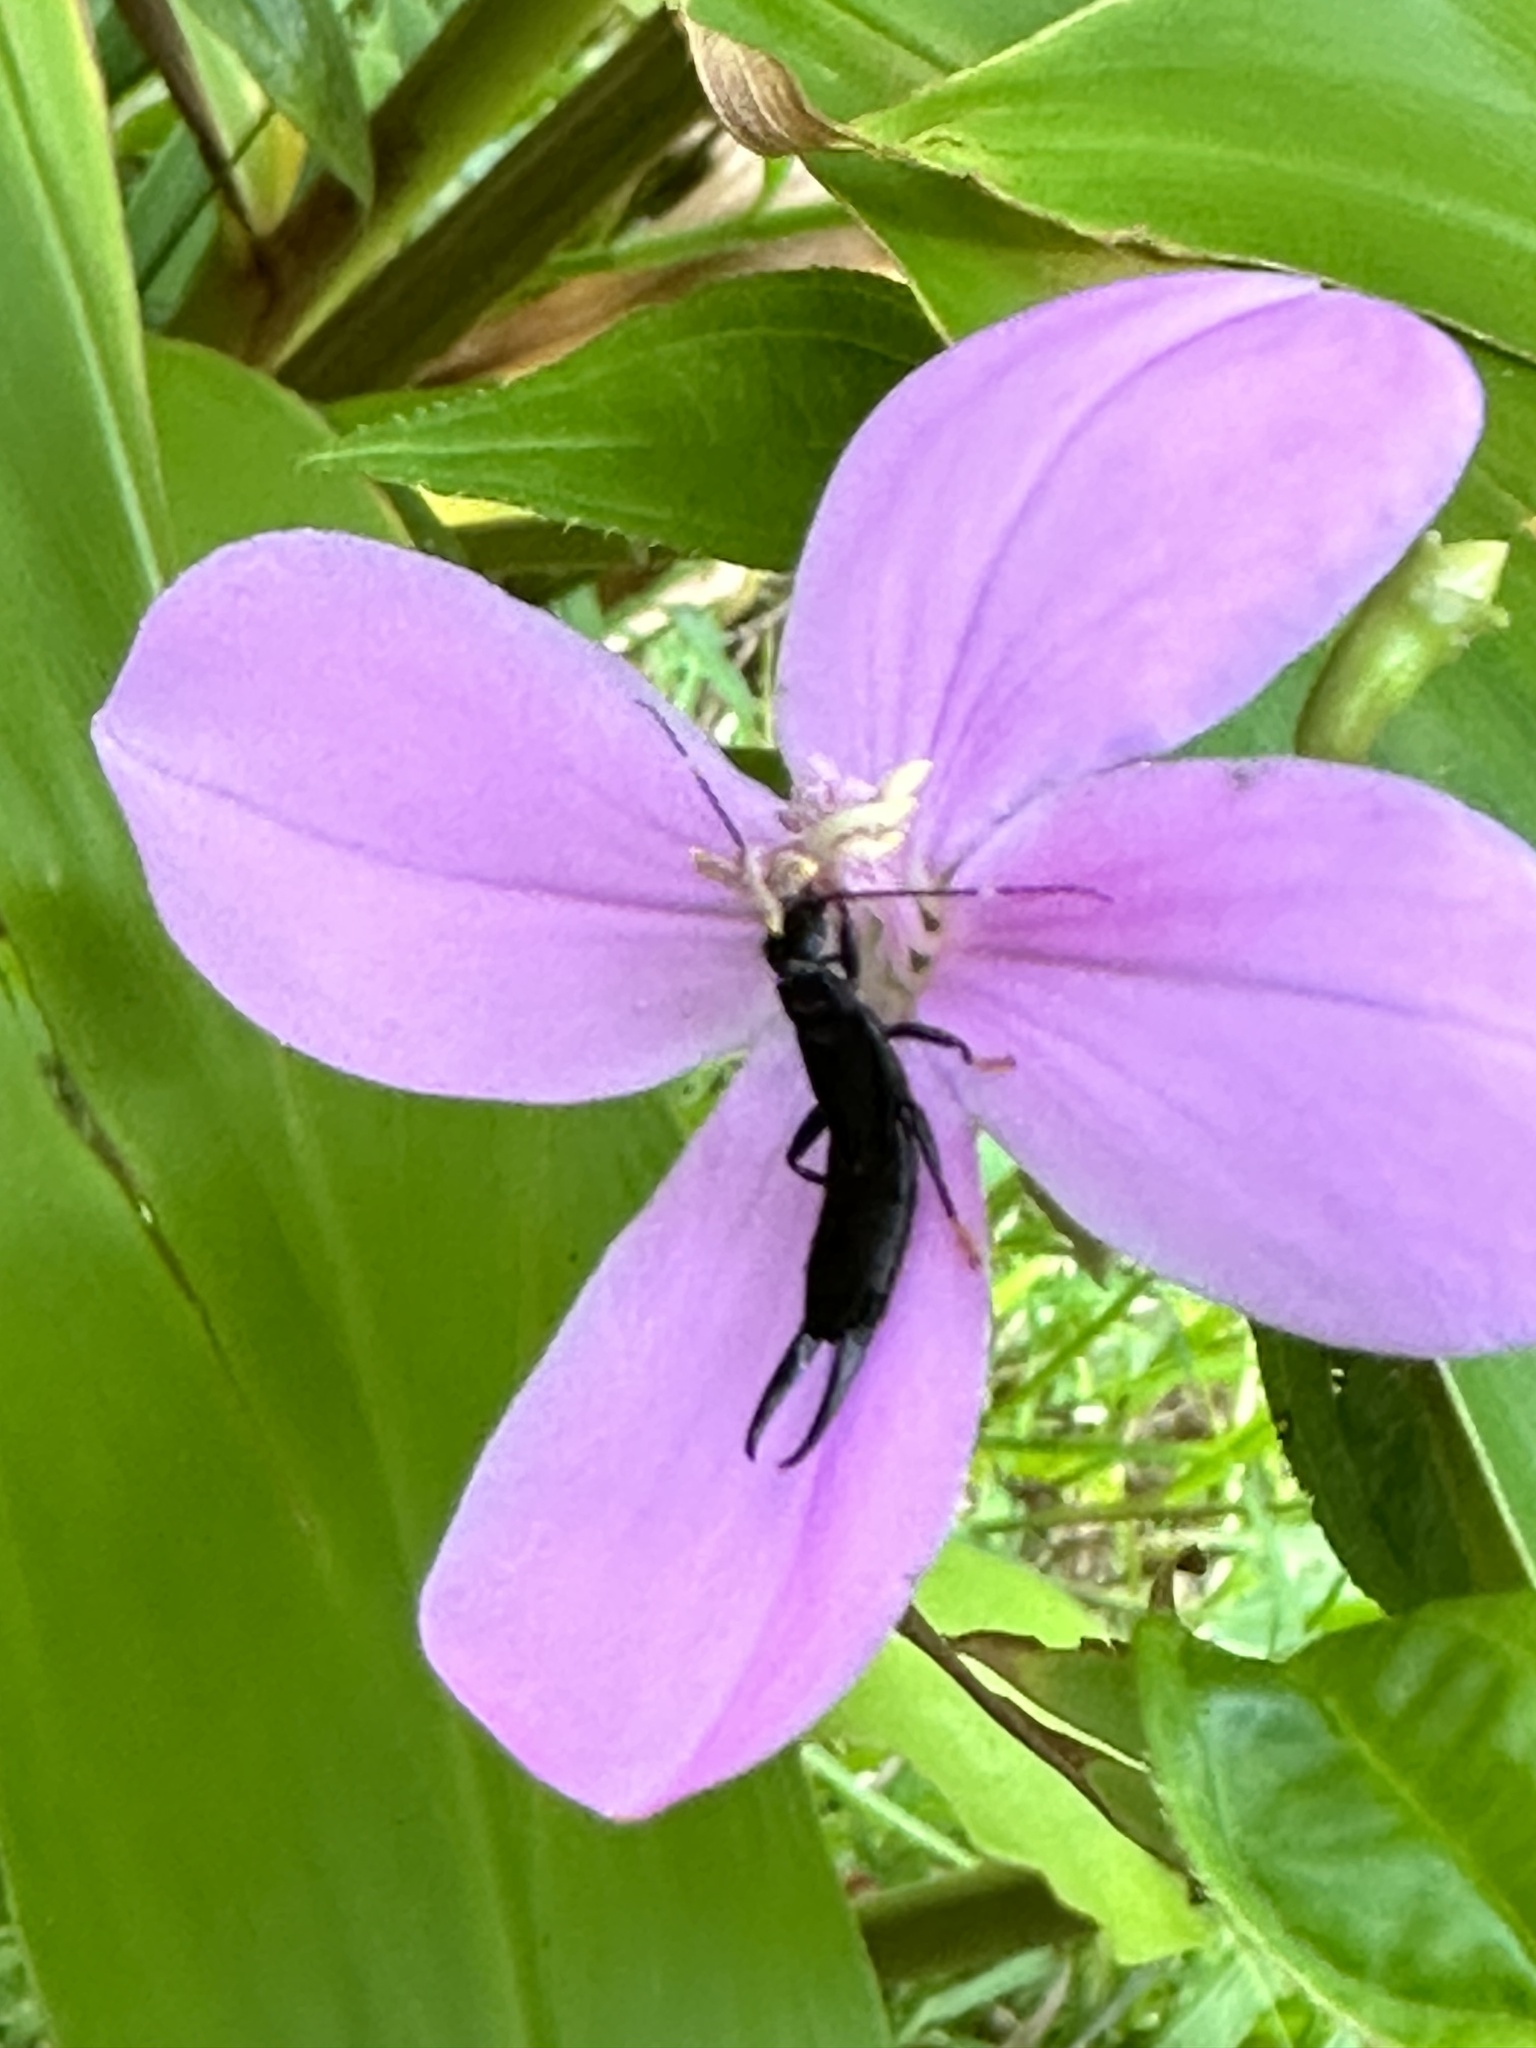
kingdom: Plantae
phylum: Tracheophyta
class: Magnoliopsida
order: Myrtales
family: Melastomataceae
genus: Arthrostemma
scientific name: Arthrostemma ciliatum
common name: Everblooming eavender
